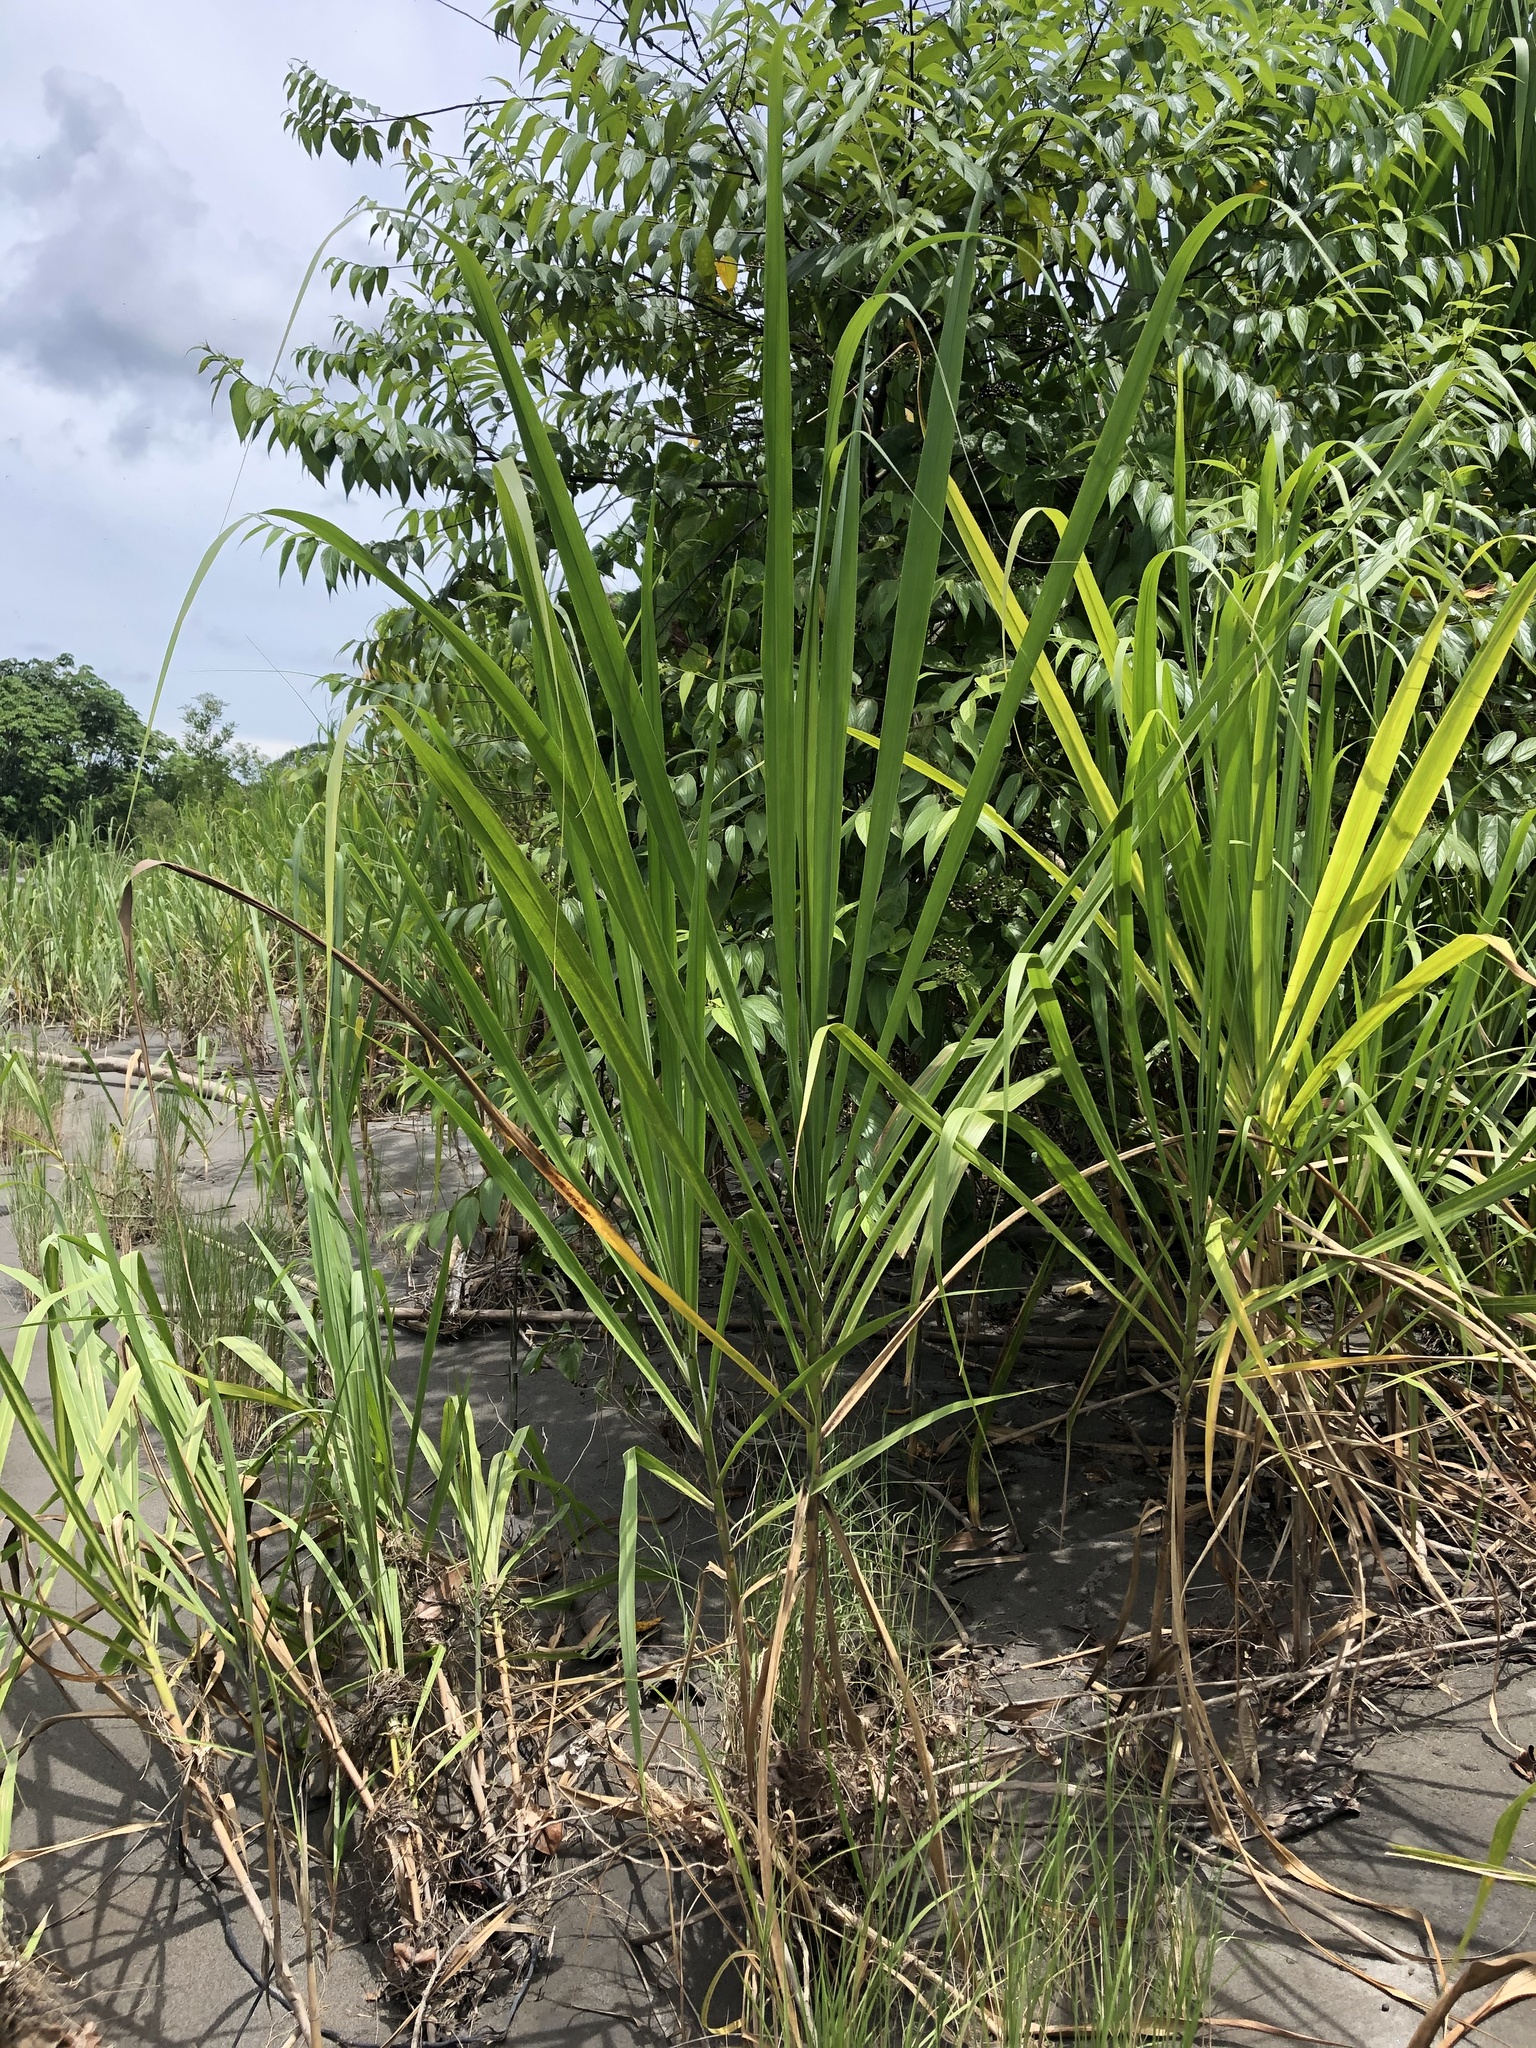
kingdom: Plantae
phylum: Tracheophyta
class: Liliopsida
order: Poales
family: Poaceae
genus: Gynerium
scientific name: Gynerium sagittatum
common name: Wild cane
